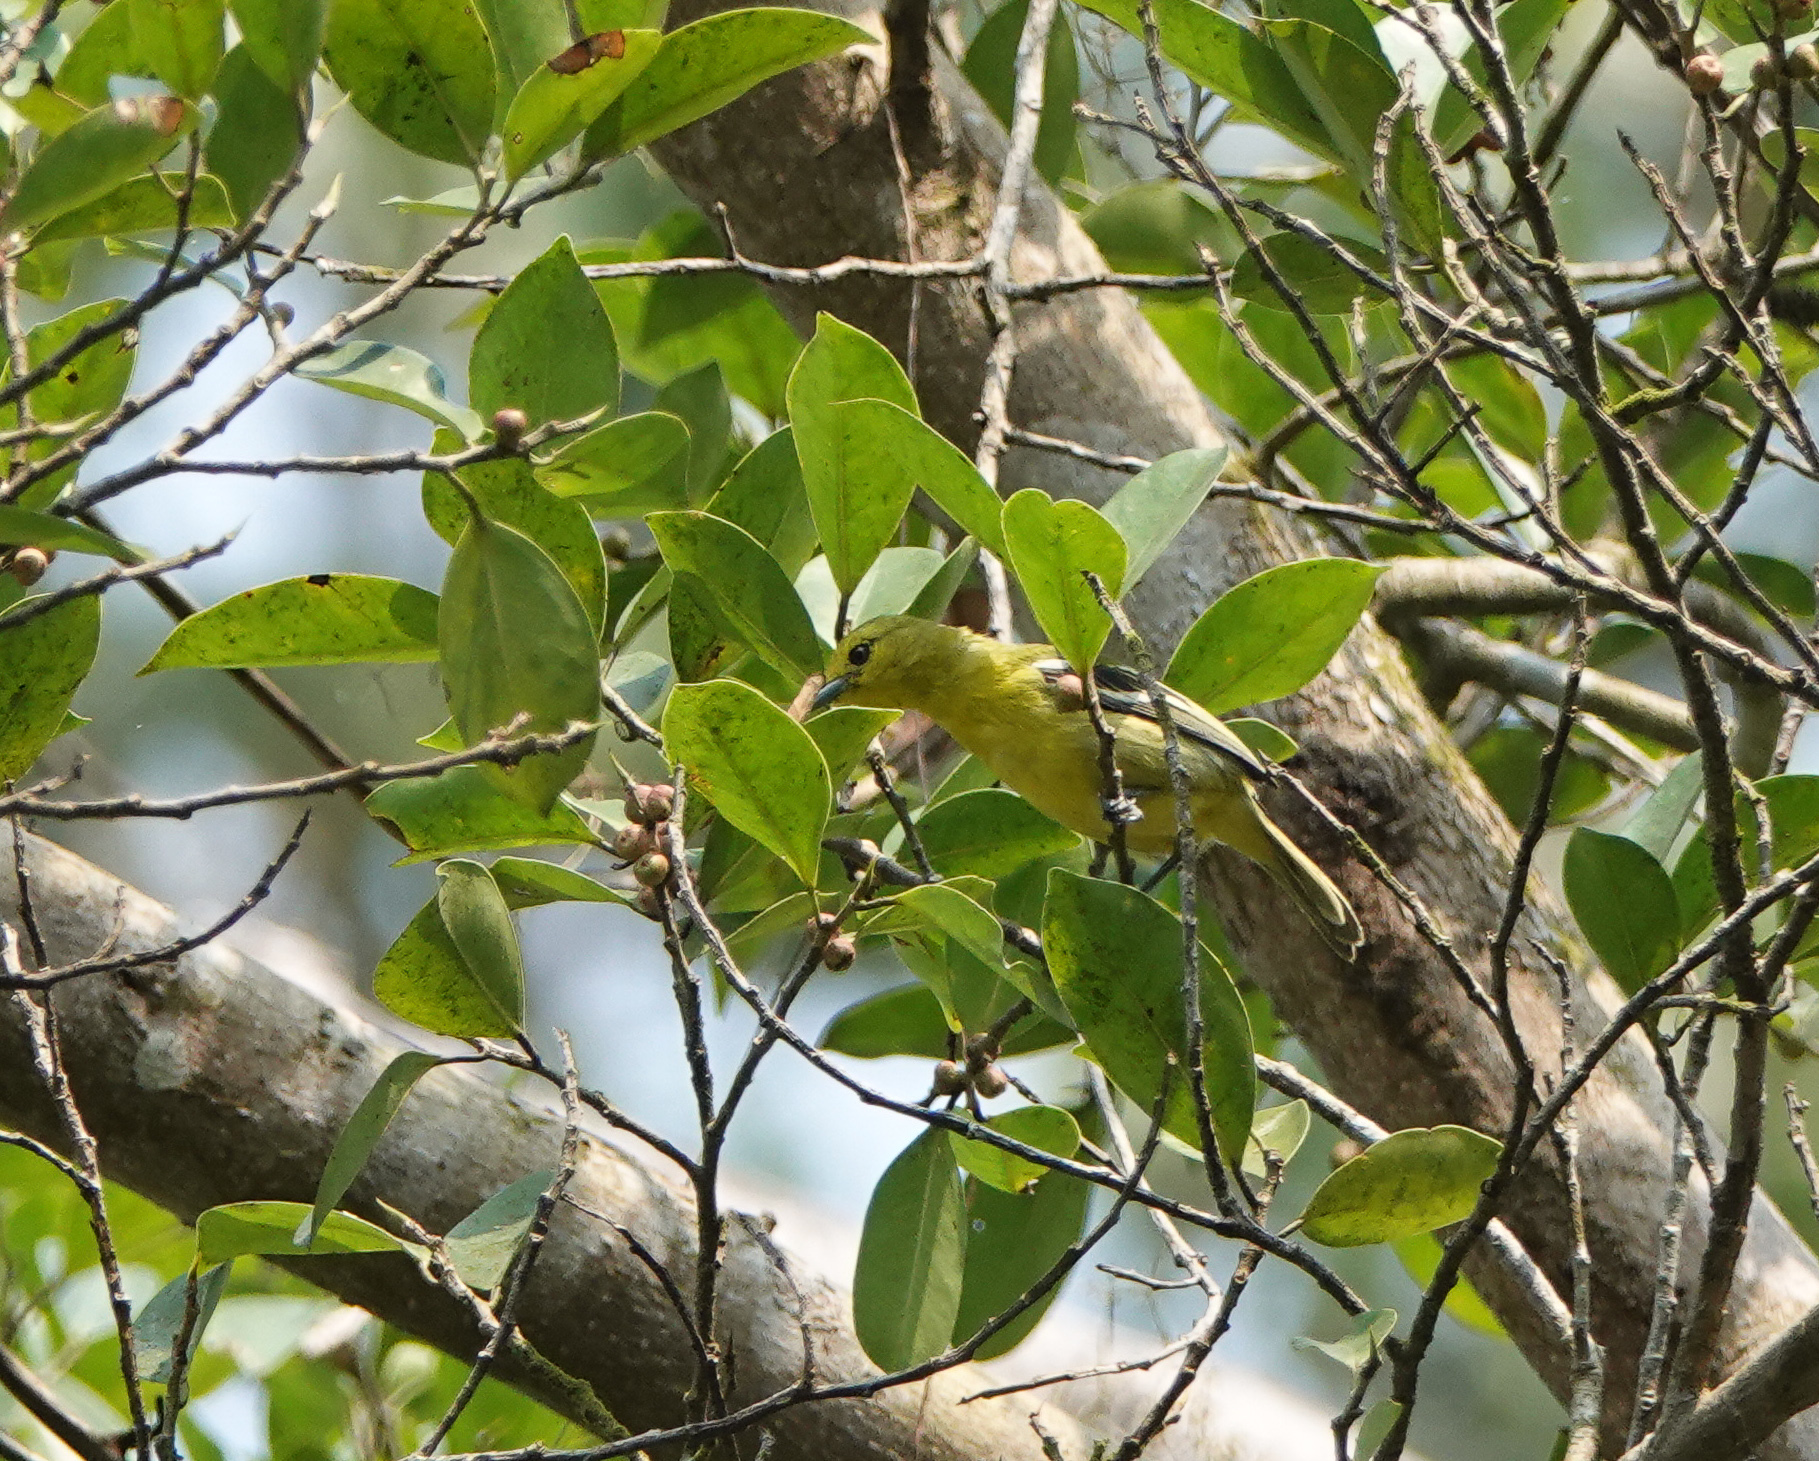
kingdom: Animalia
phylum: Chordata
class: Aves
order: Passeriformes
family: Aegithinidae
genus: Aegithina
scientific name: Aegithina tiphia
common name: Common iora
